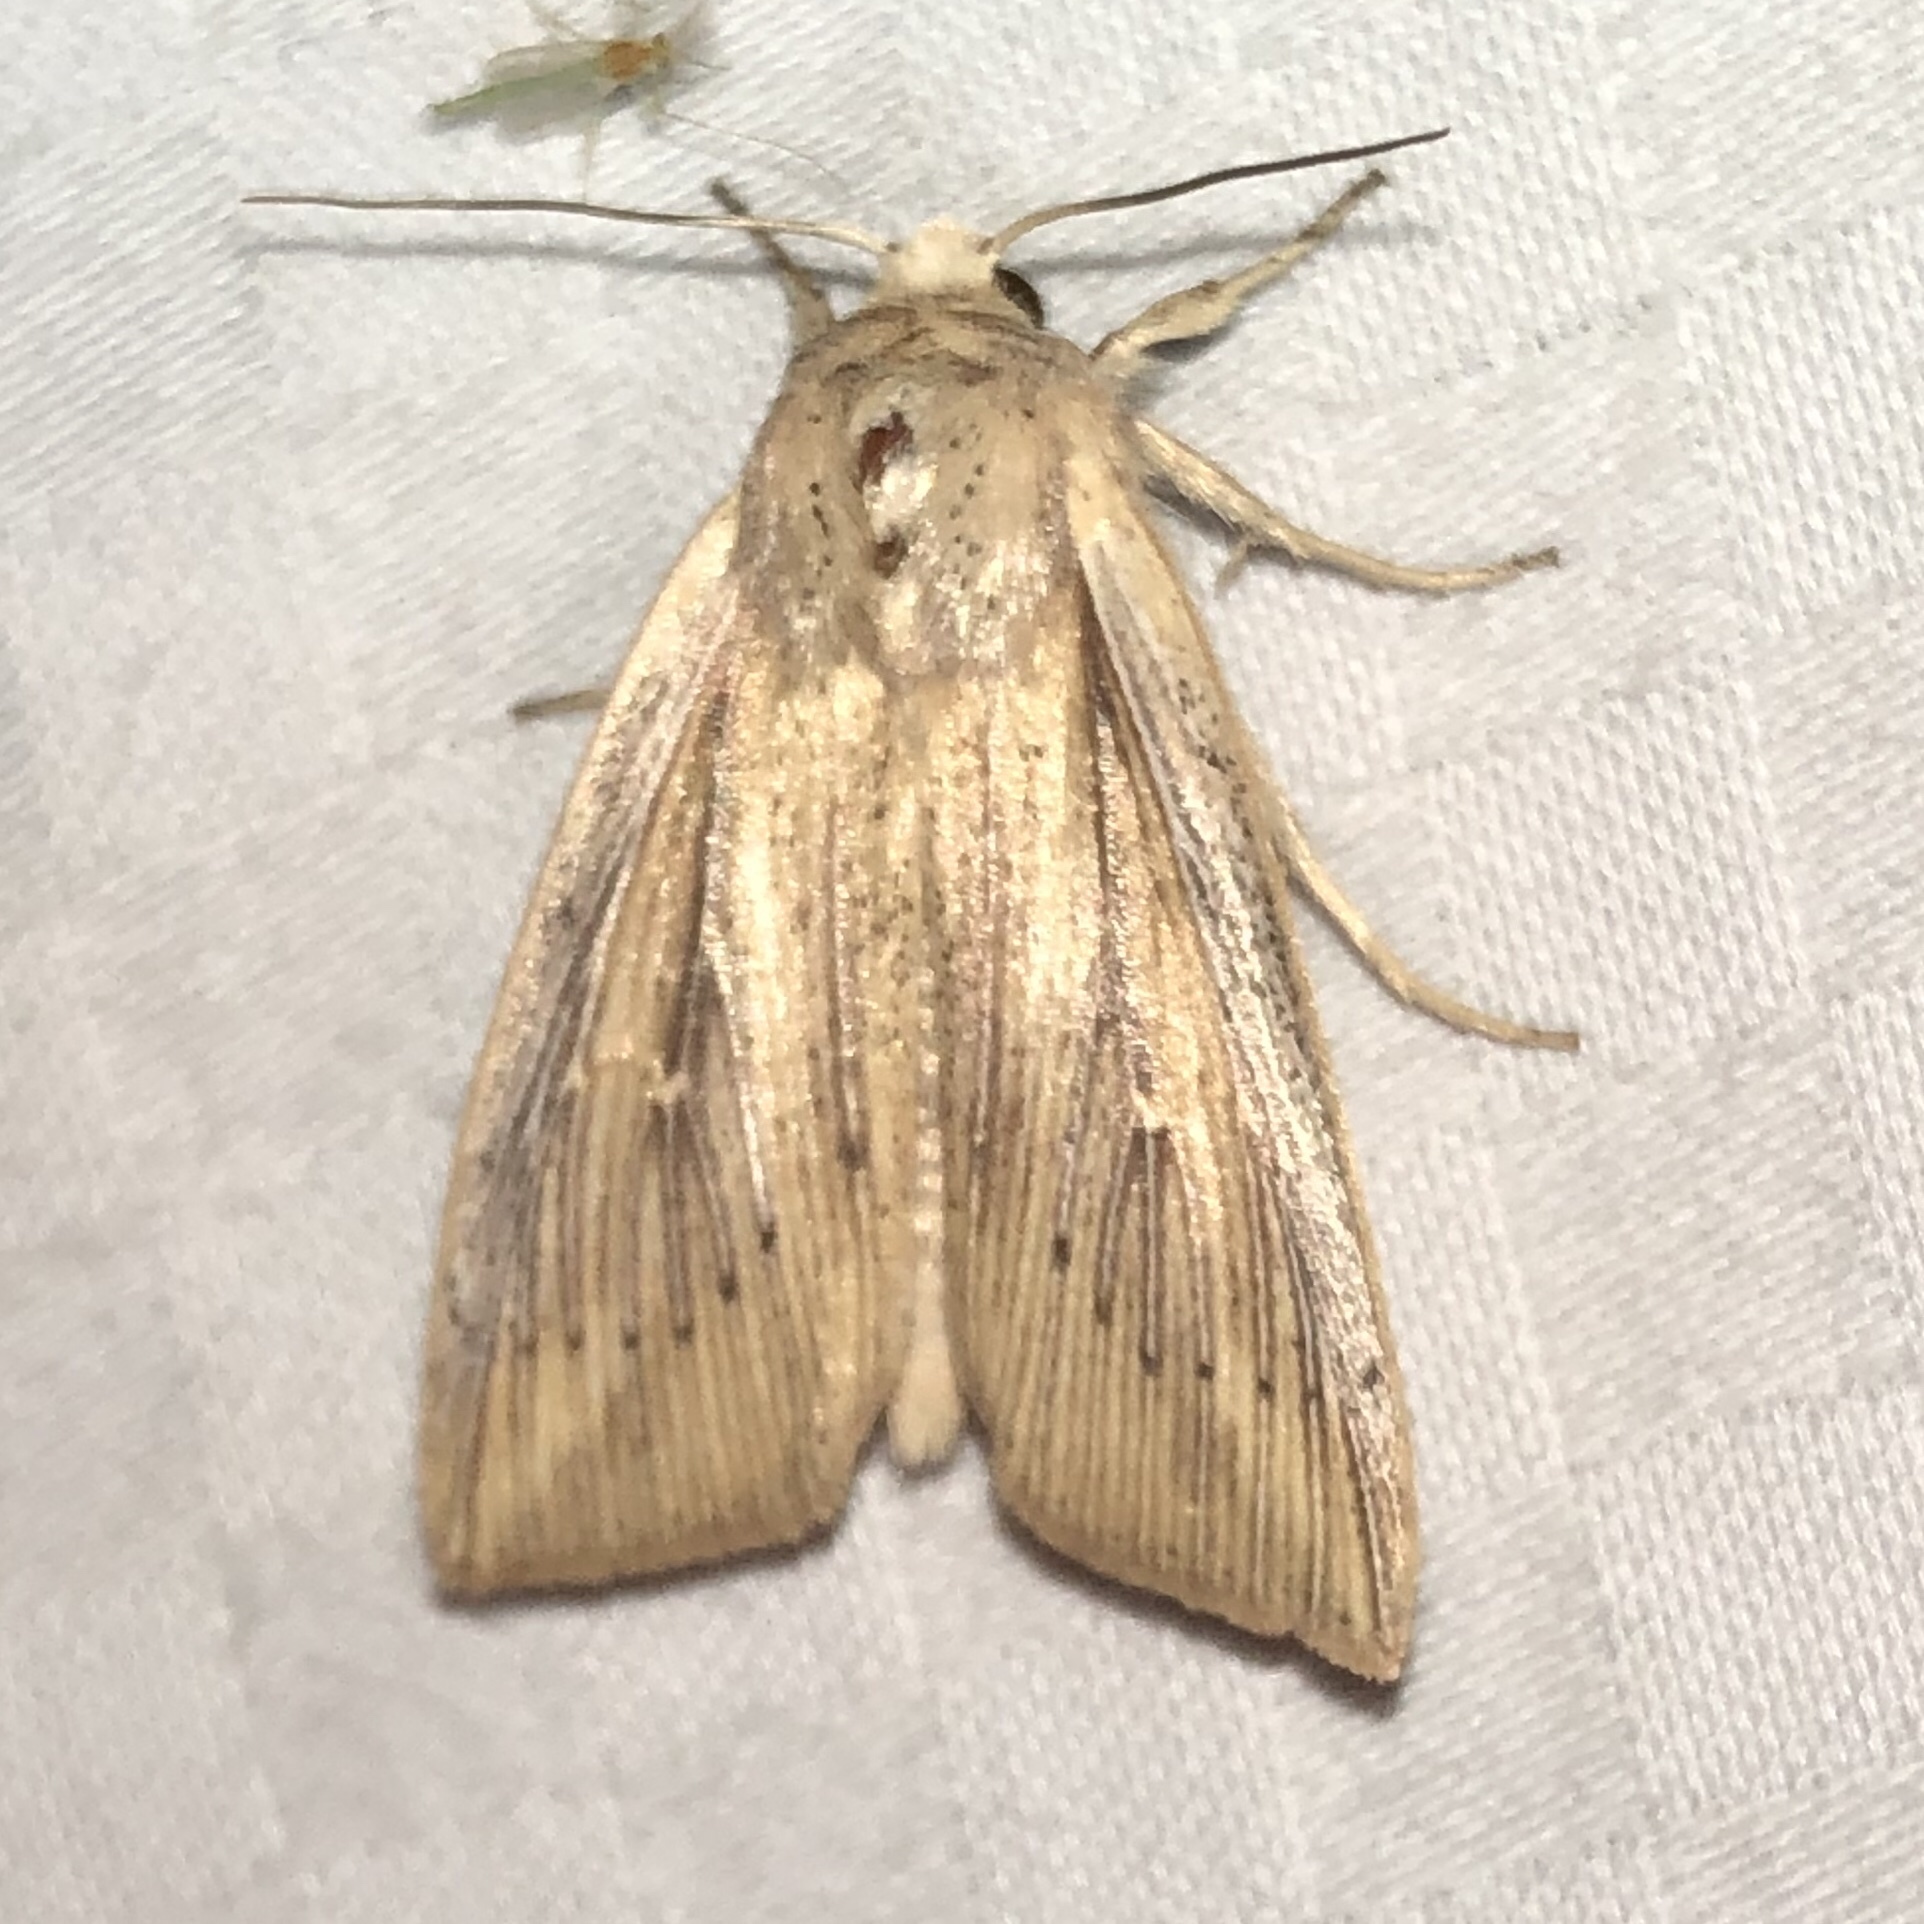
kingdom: Animalia
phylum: Arthropoda
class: Insecta
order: Lepidoptera
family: Noctuidae
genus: Leucania
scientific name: Leucania linita
